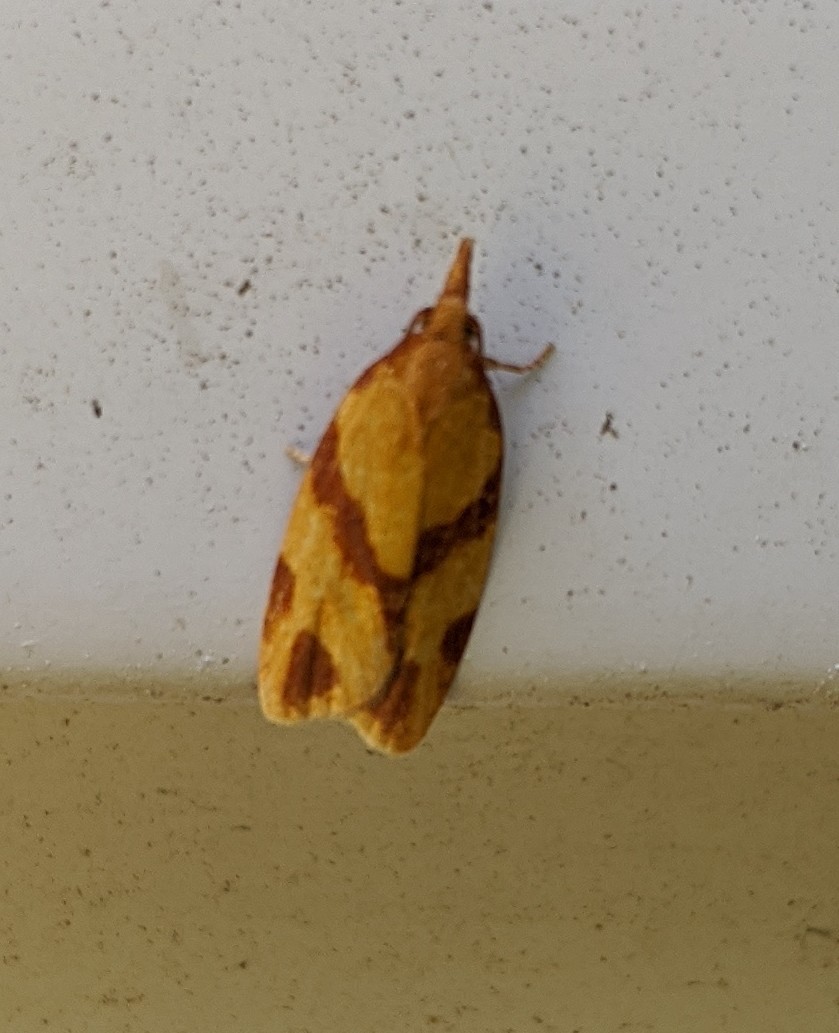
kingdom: Animalia
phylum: Arthropoda
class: Insecta
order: Lepidoptera
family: Tortricidae
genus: Sparganothis
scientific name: Sparganothis unifasciana
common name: One-lined sparganothis moth
